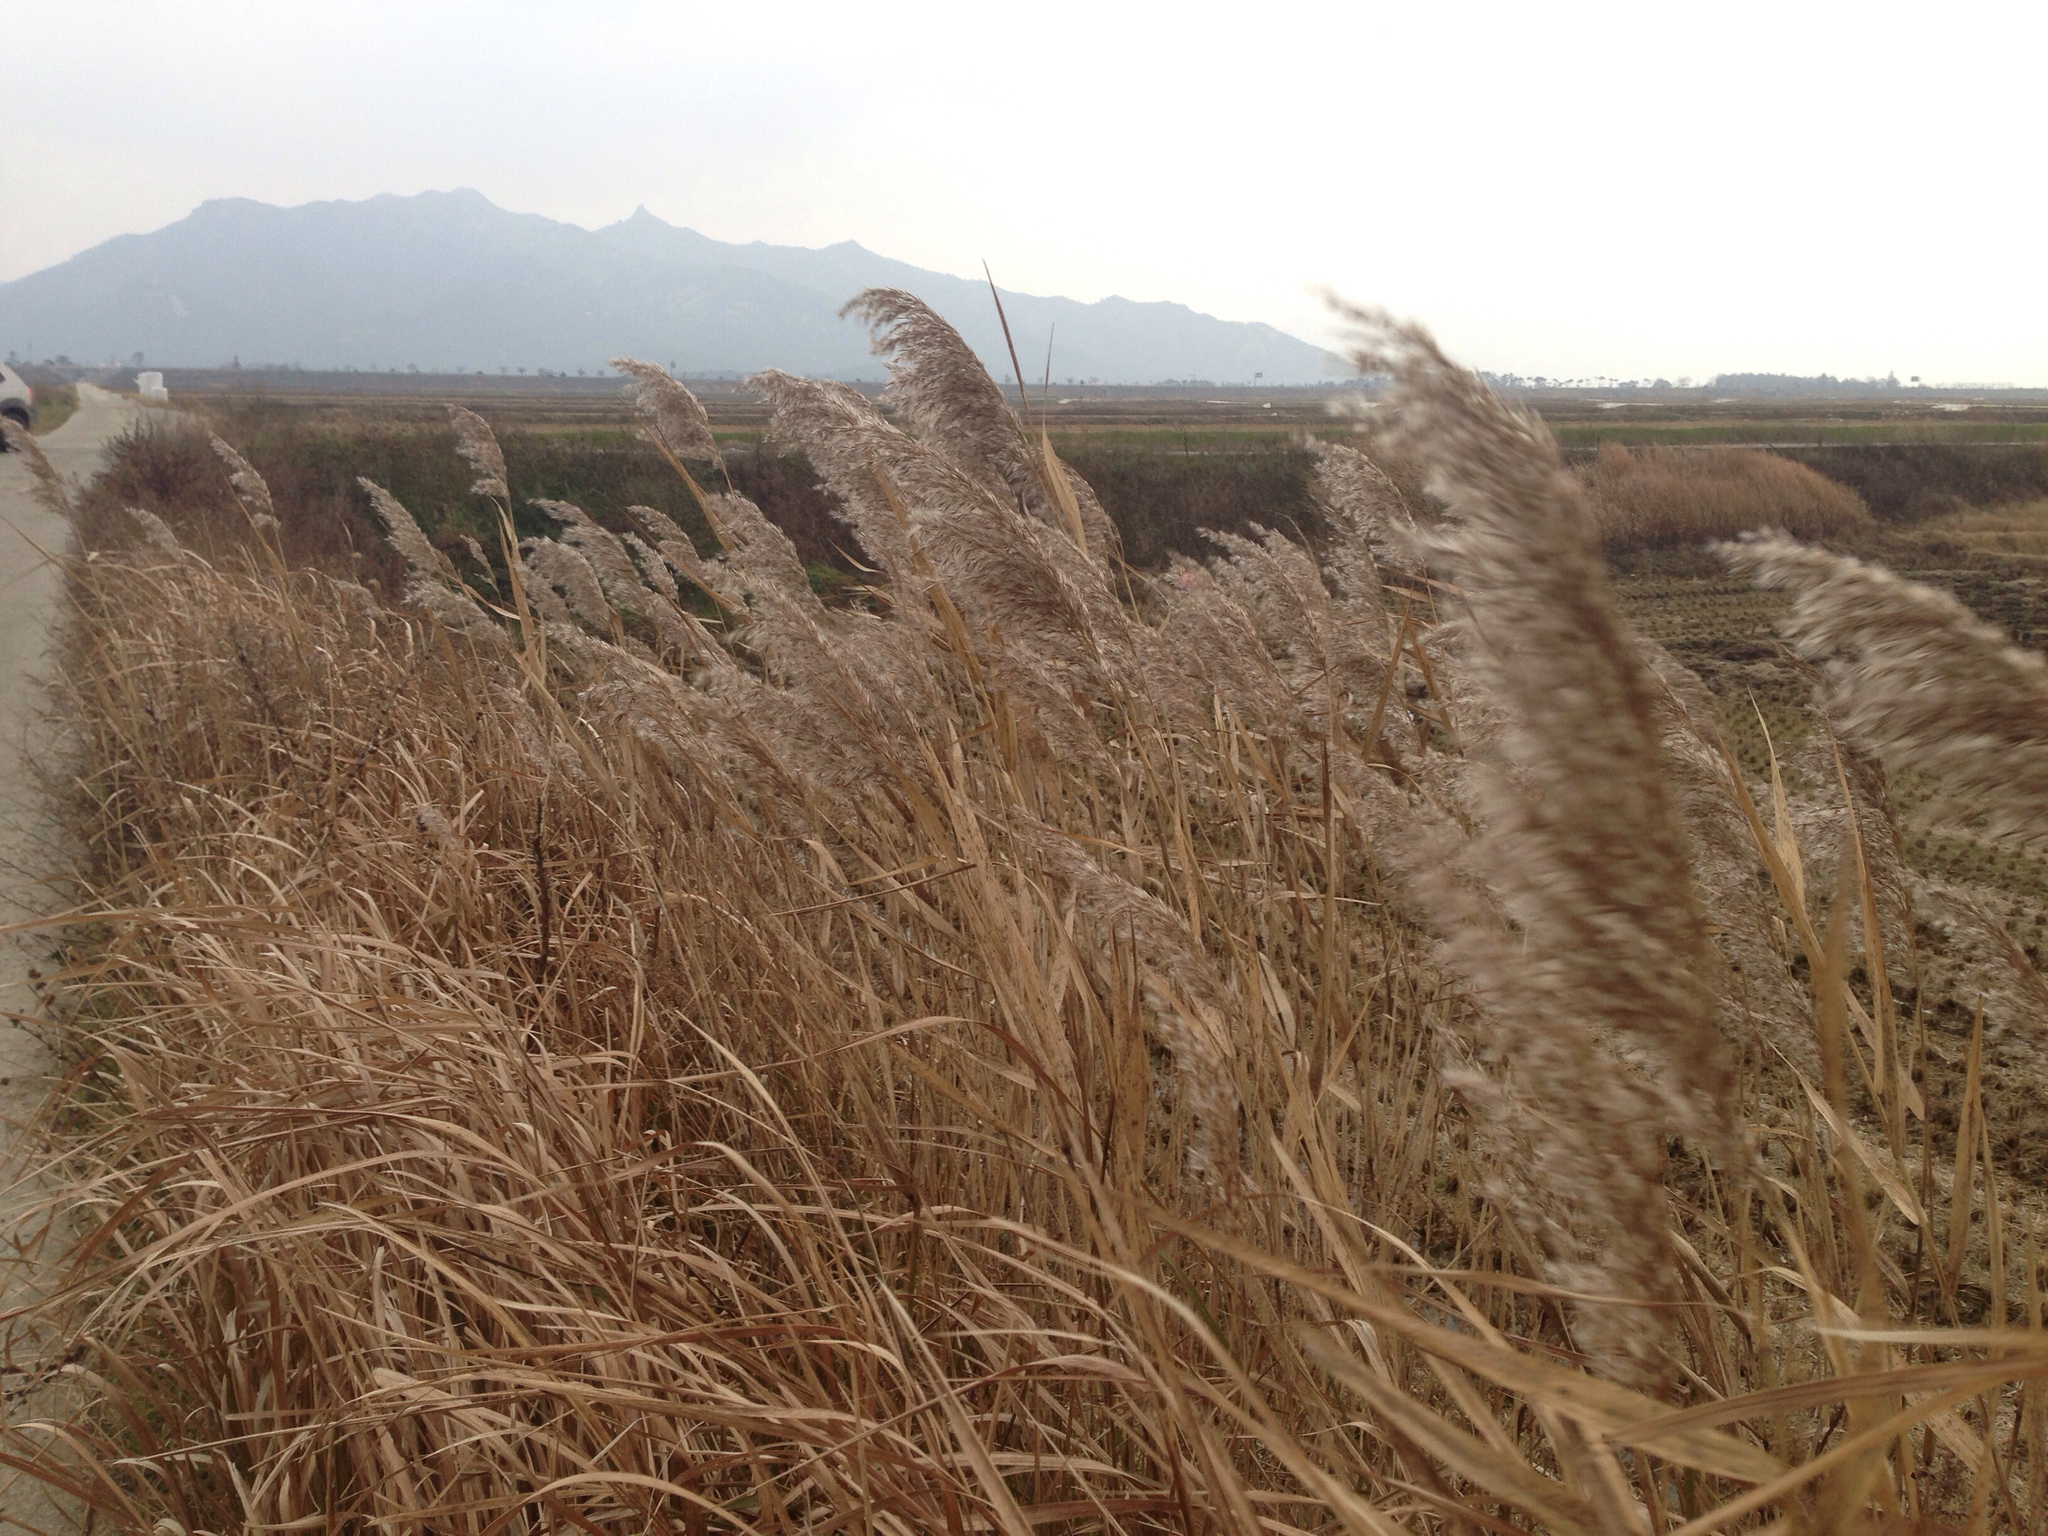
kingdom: Plantae
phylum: Tracheophyta
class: Liliopsida
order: Poales
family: Poaceae
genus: Phragmites
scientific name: Phragmites australis
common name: Common reed
